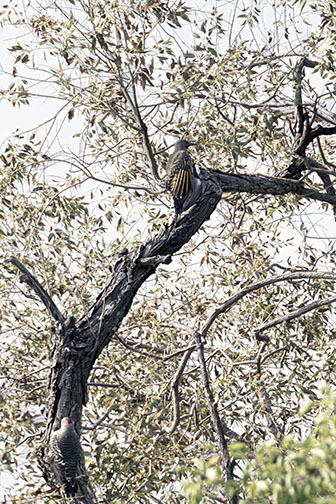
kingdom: Animalia
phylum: Chordata
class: Aves
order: Piciformes
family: Picidae
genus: Colaptes
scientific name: Colaptes auratus
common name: Northern flicker
